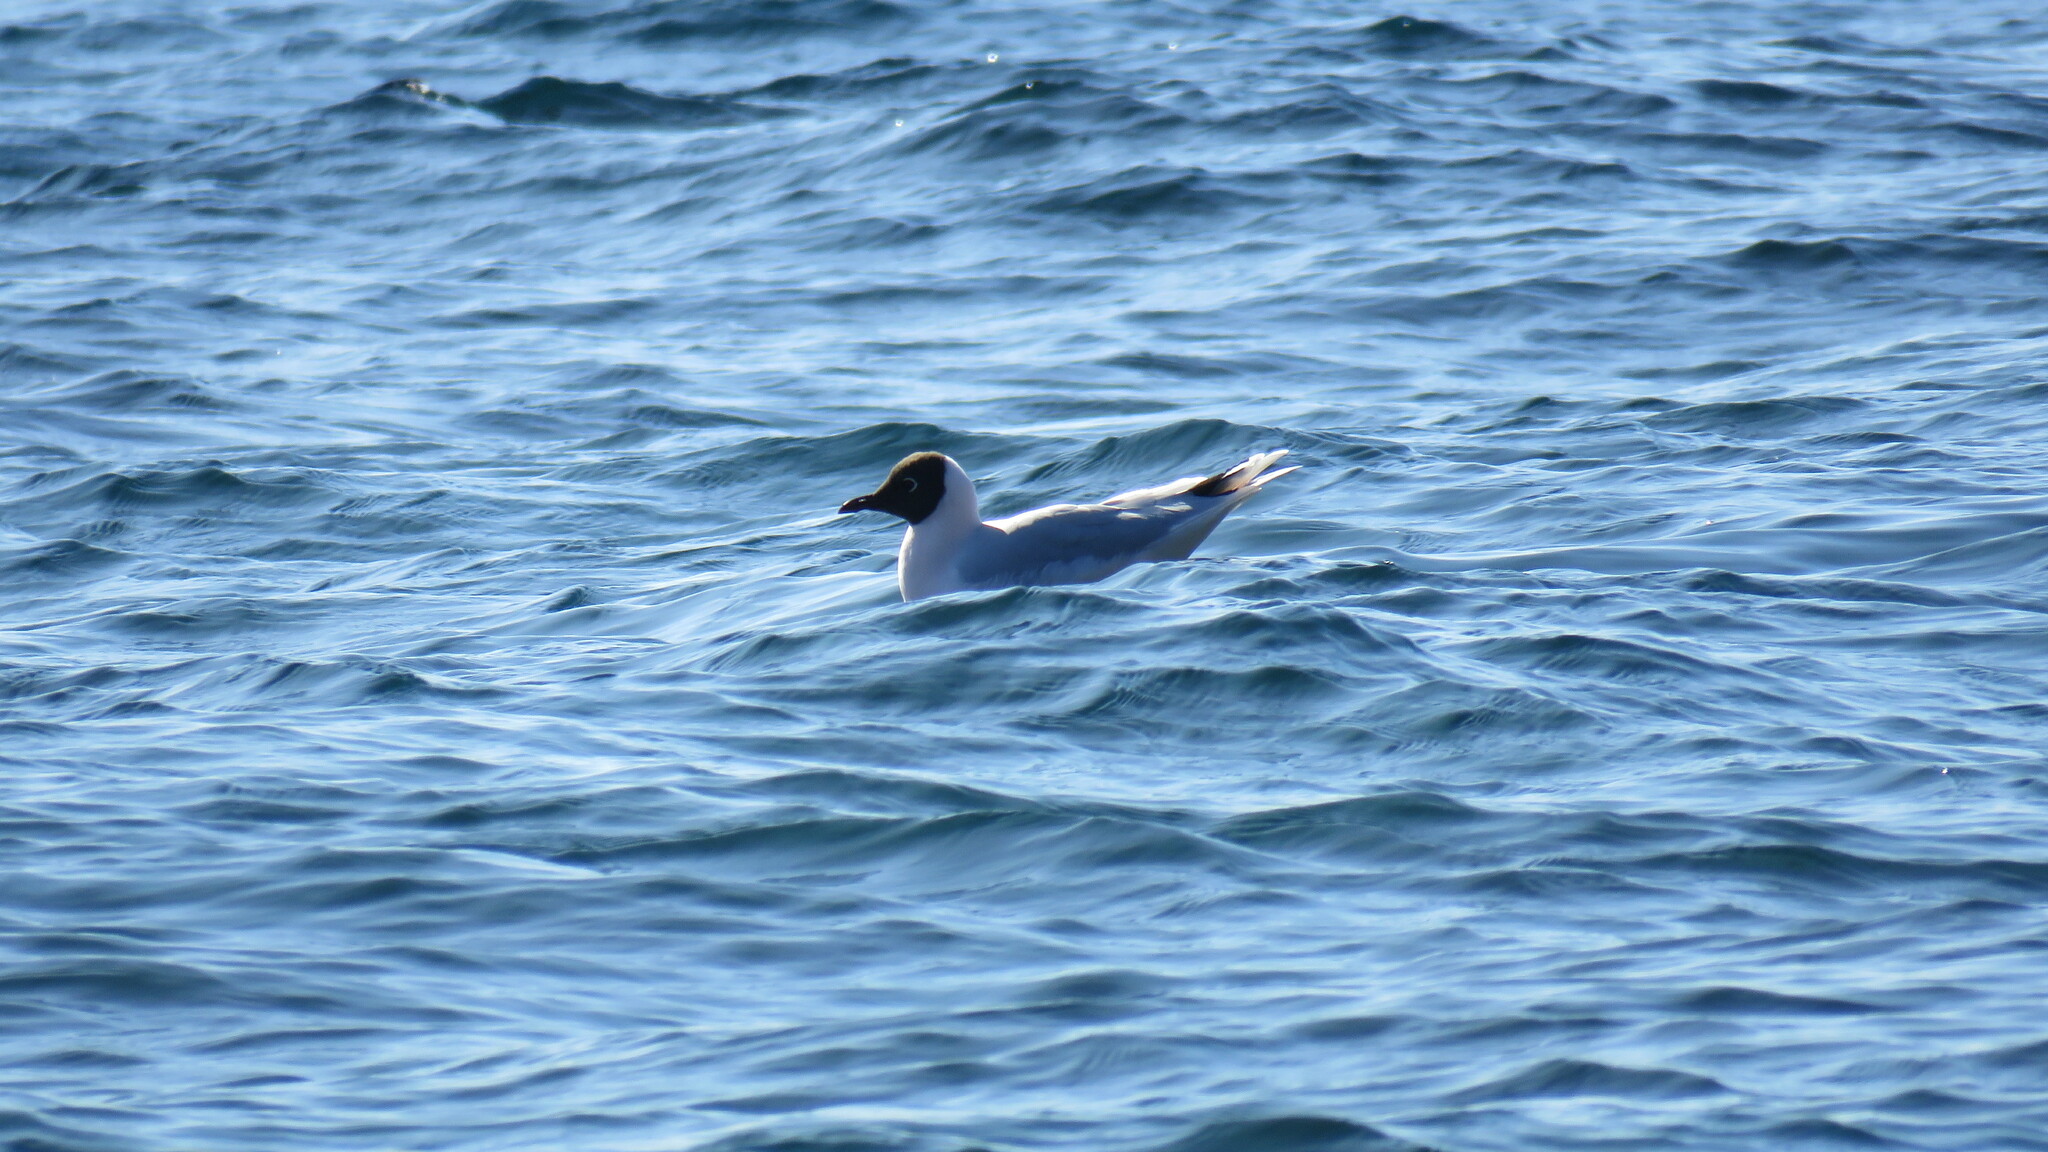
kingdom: Animalia
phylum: Chordata
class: Aves
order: Charadriiformes
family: Laridae
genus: Chroicocephalus
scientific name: Chroicocephalus maculipennis
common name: Brown-hooded gull
